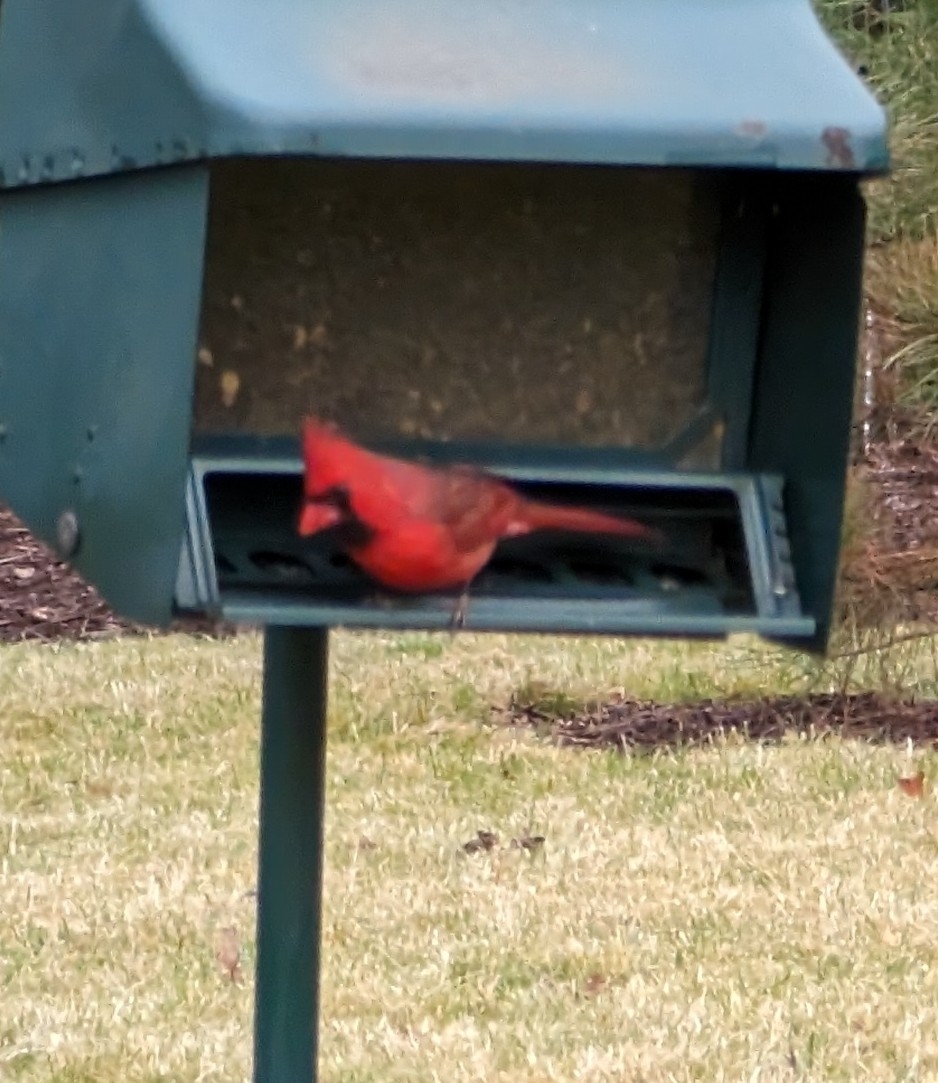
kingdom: Animalia
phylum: Chordata
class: Aves
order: Passeriformes
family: Cardinalidae
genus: Cardinalis
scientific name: Cardinalis cardinalis
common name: Northern cardinal
